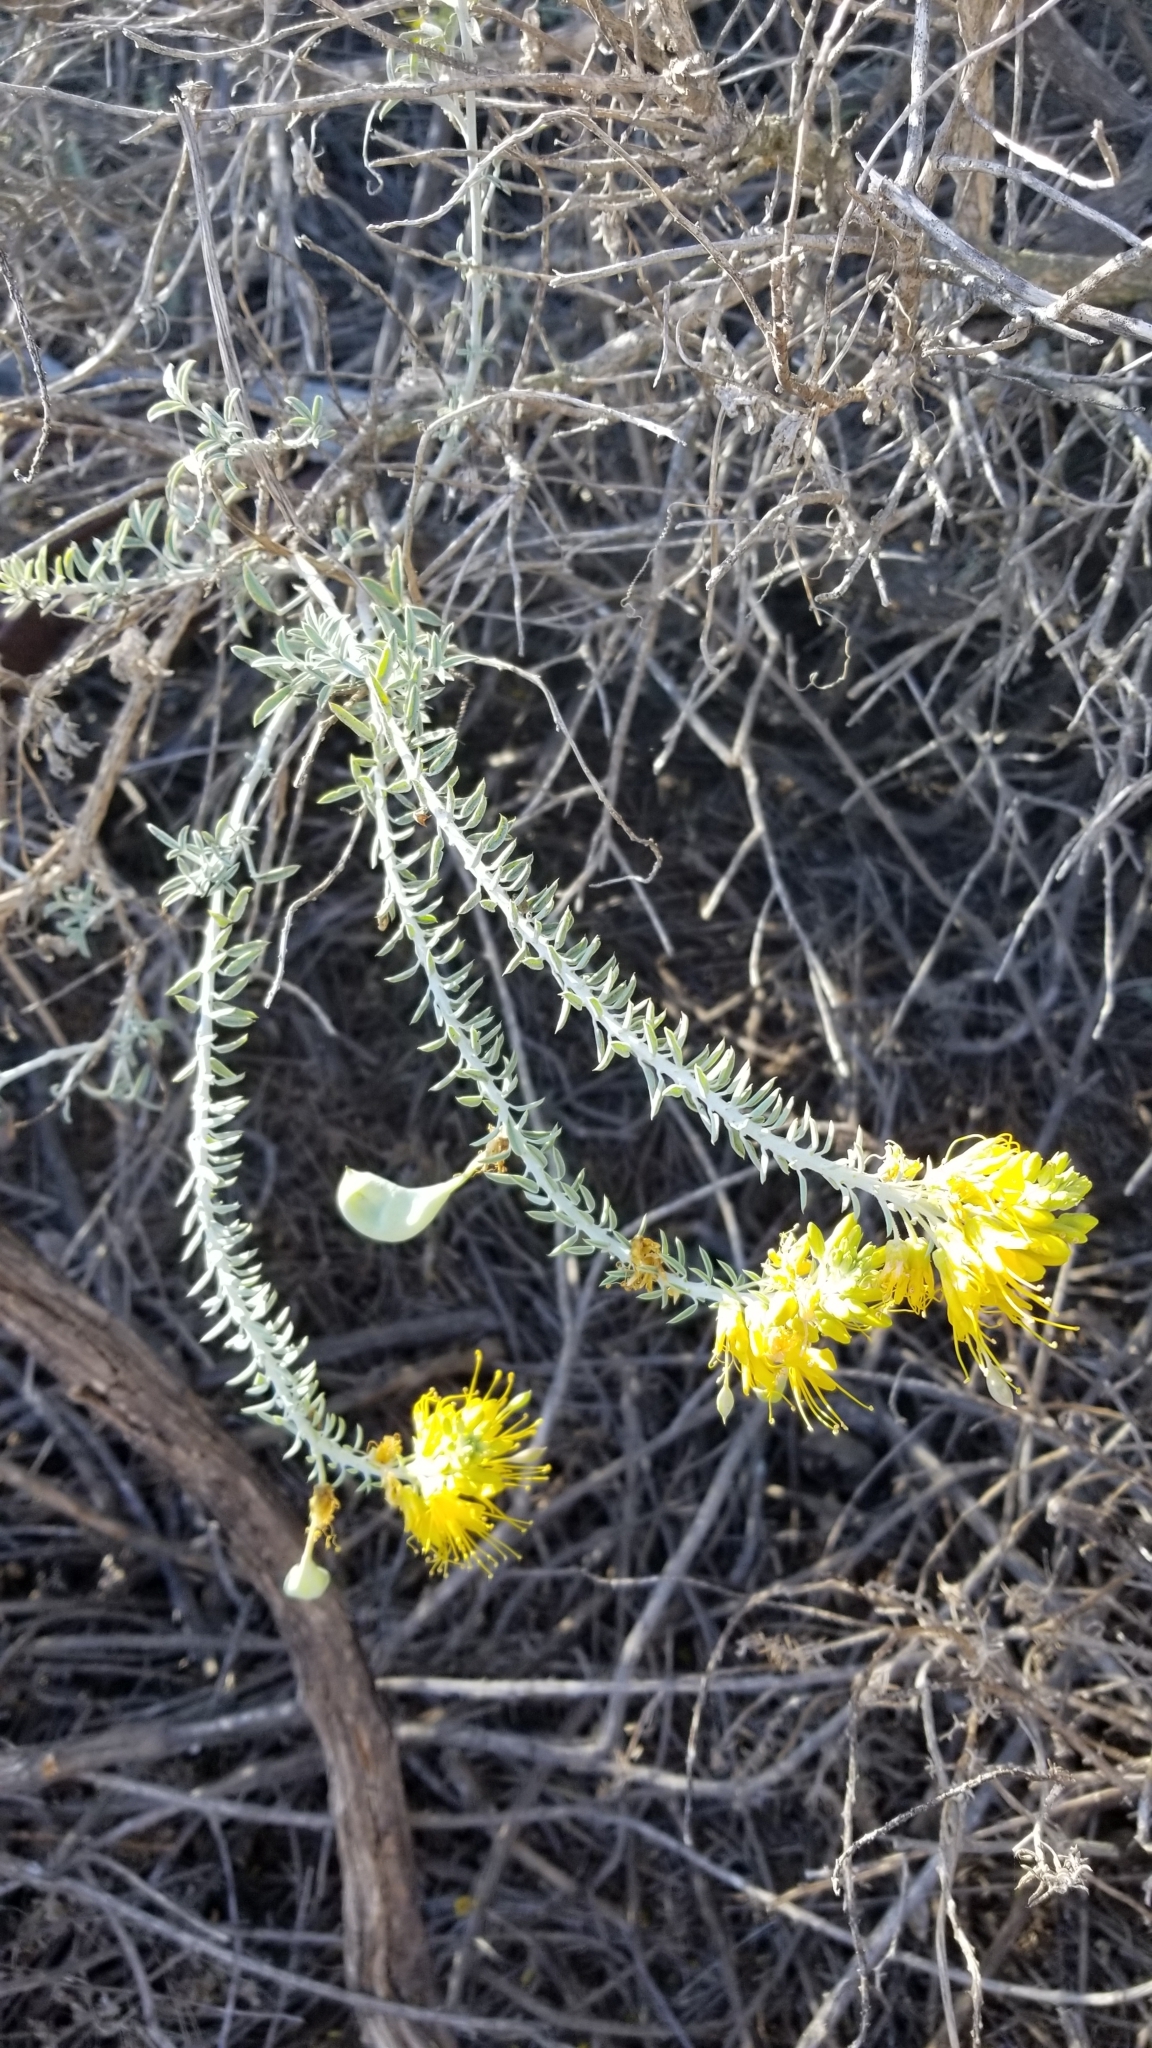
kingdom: Plantae
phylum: Tracheophyta
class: Magnoliopsida
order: Brassicales
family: Cleomaceae
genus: Cleomella
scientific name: Cleomella arborea
